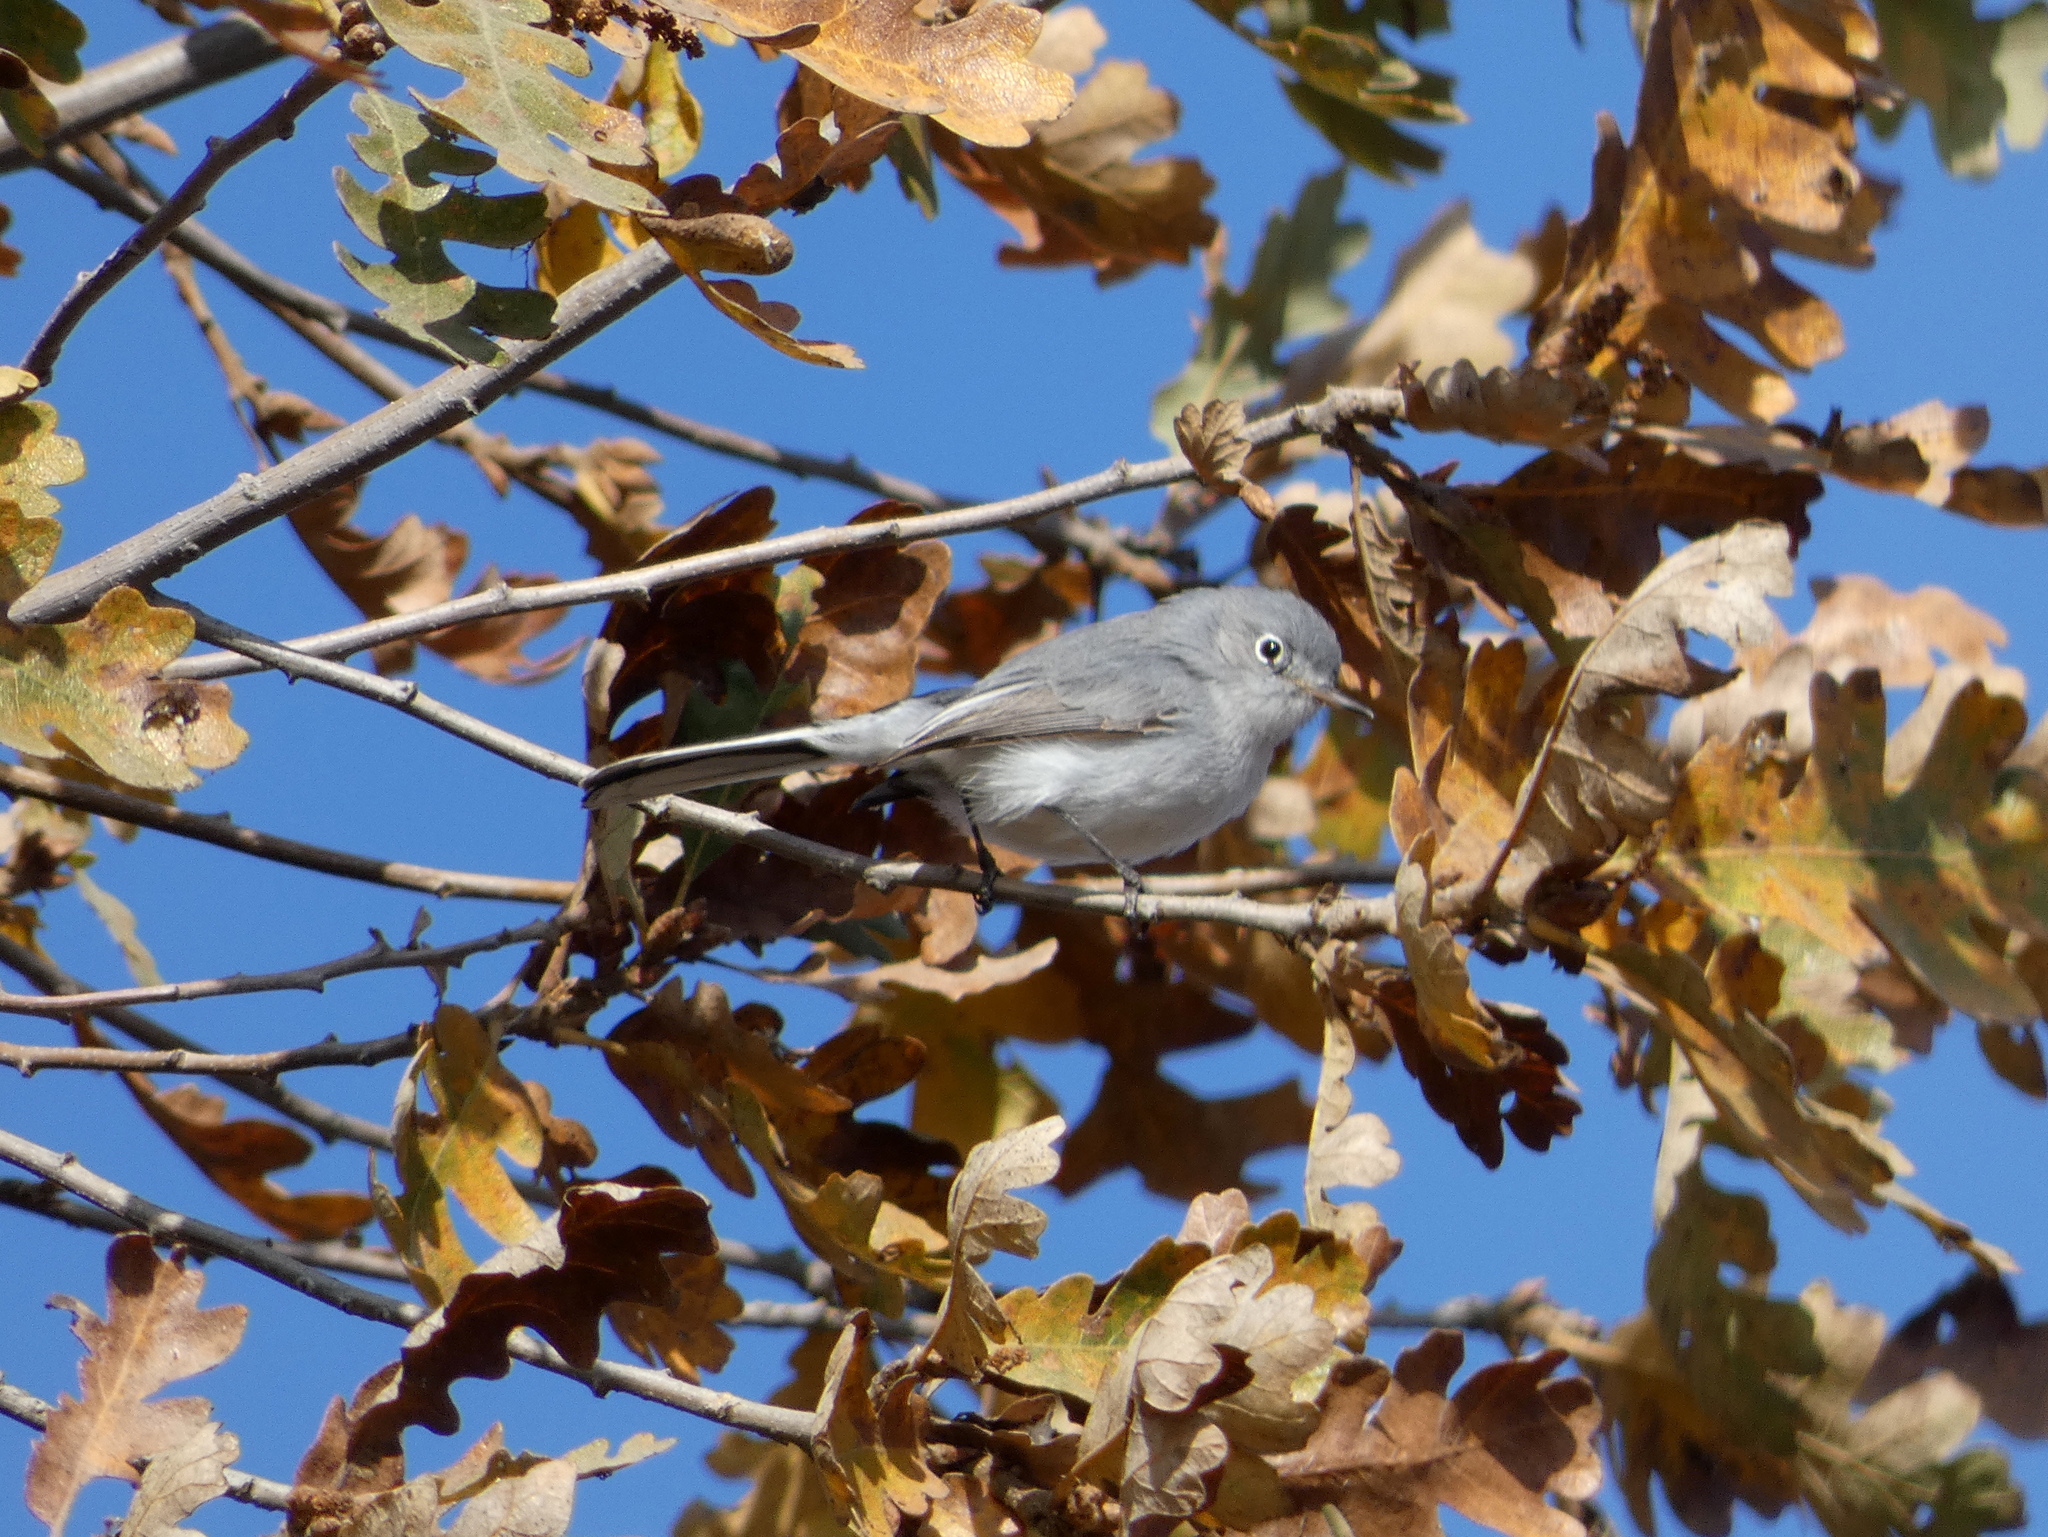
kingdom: Animalia
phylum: Chordata
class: Aves
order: Passeriformes
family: Polioptilidae
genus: Polioptila
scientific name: Polioptila caerulea
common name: Blue-gray gnatcatcher
